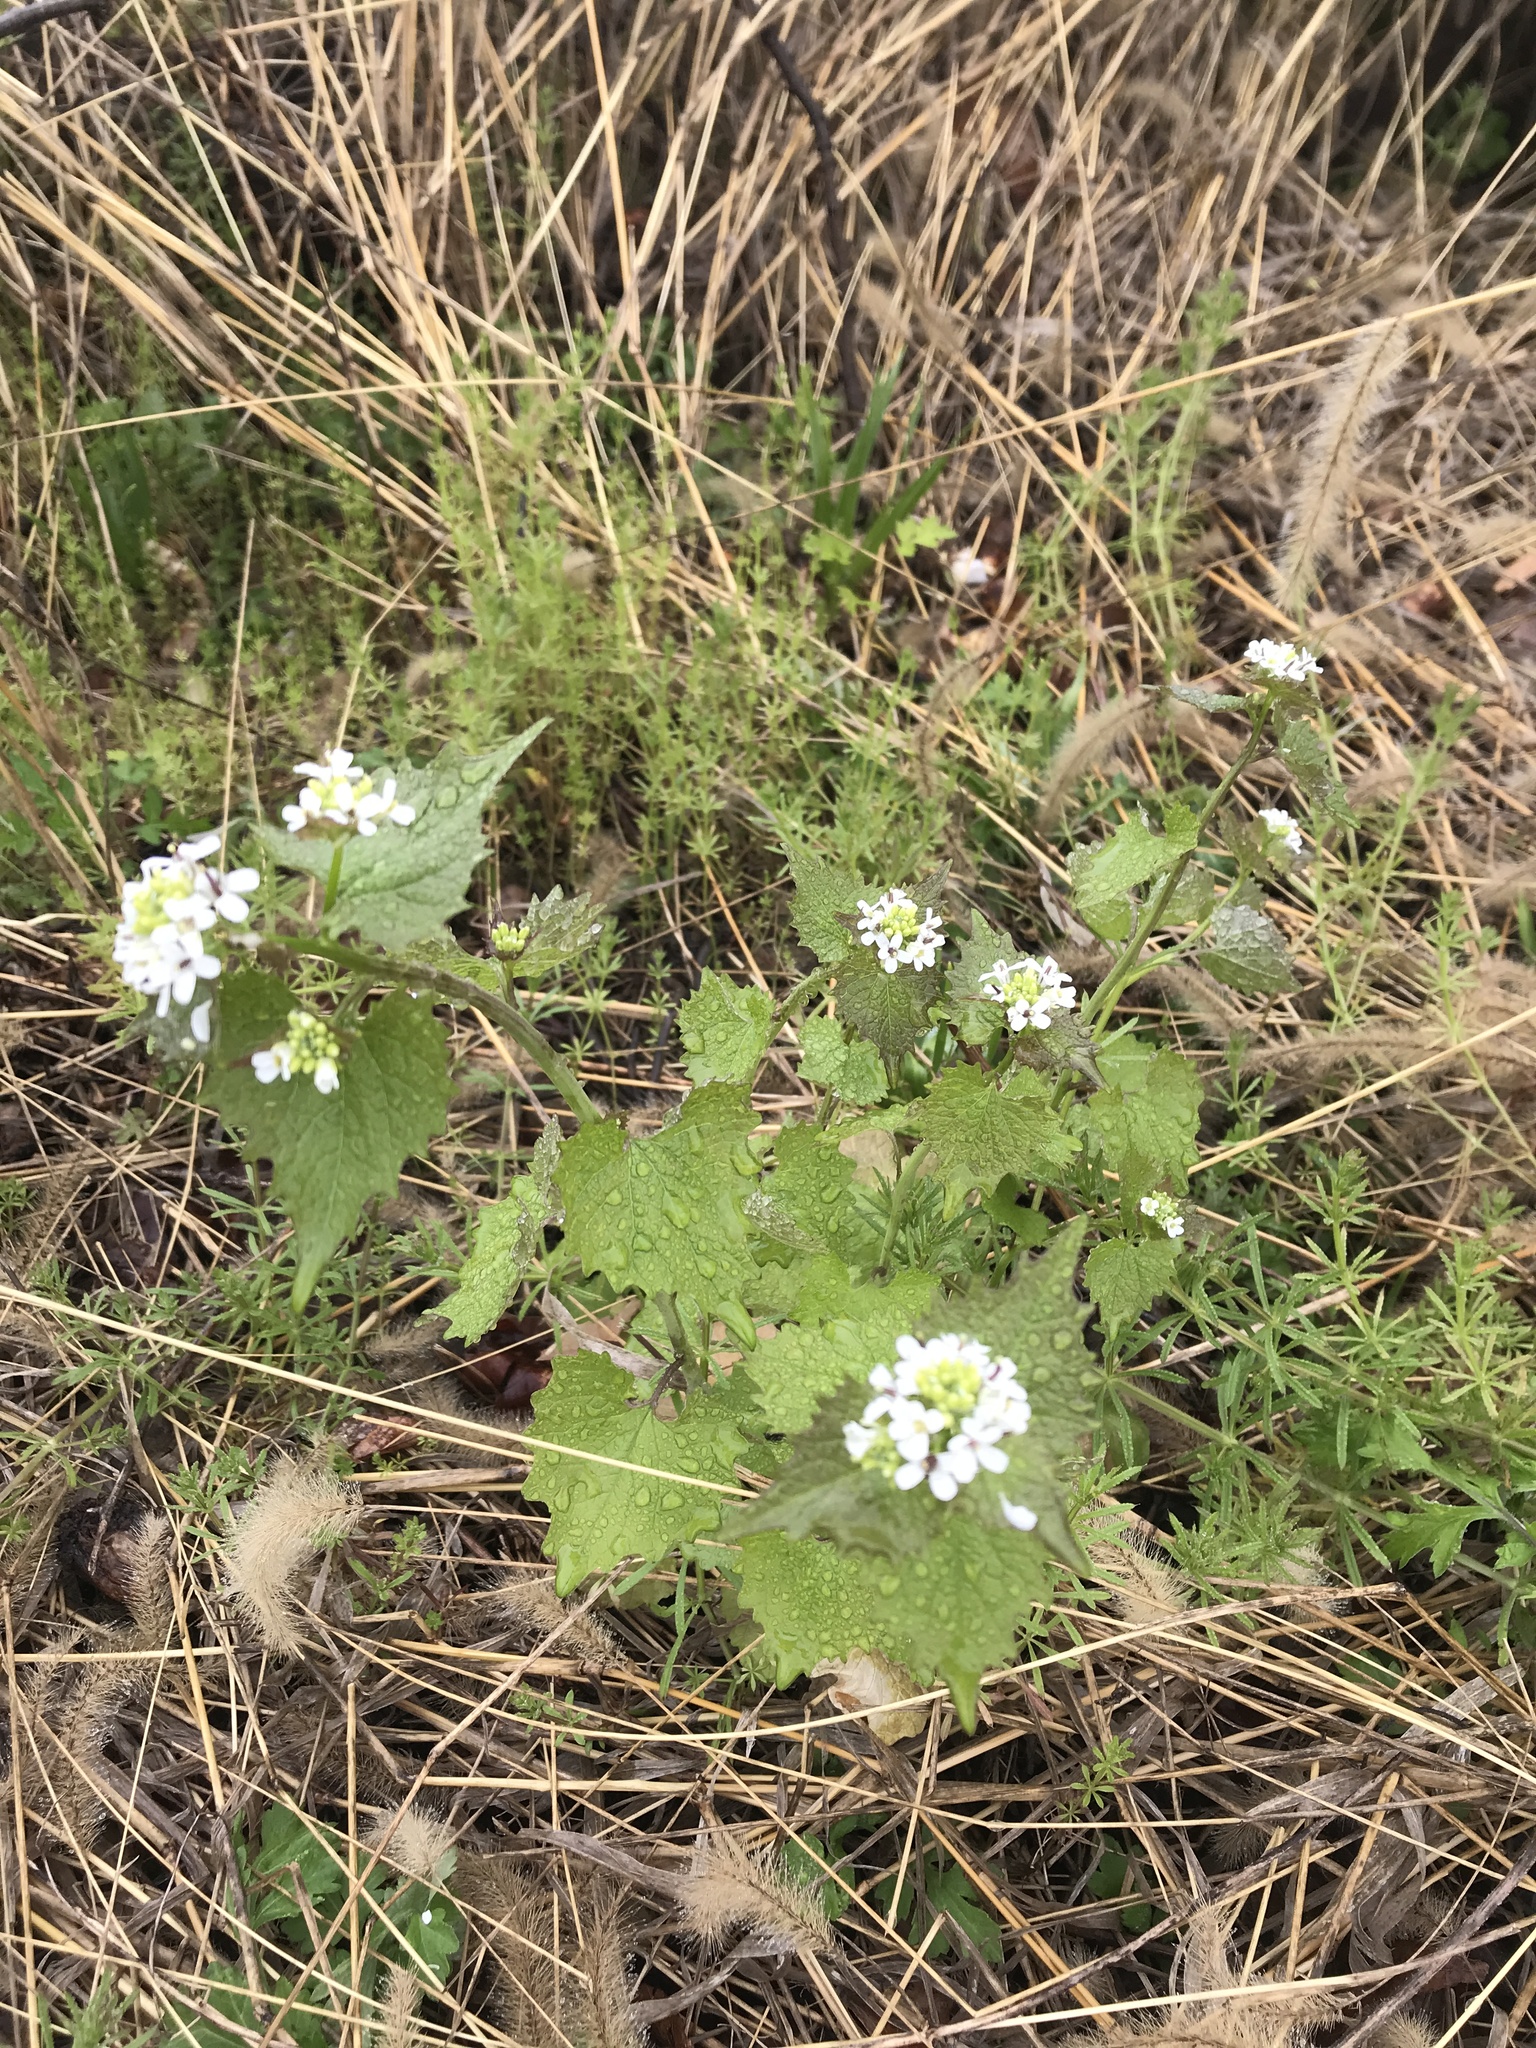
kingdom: Plantae
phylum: Tracheophyta
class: Magnoliopsida
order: Brassicales
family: Brassicaceae
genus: Alliaria
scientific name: Alliaria petiolata
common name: Garlic mustard
